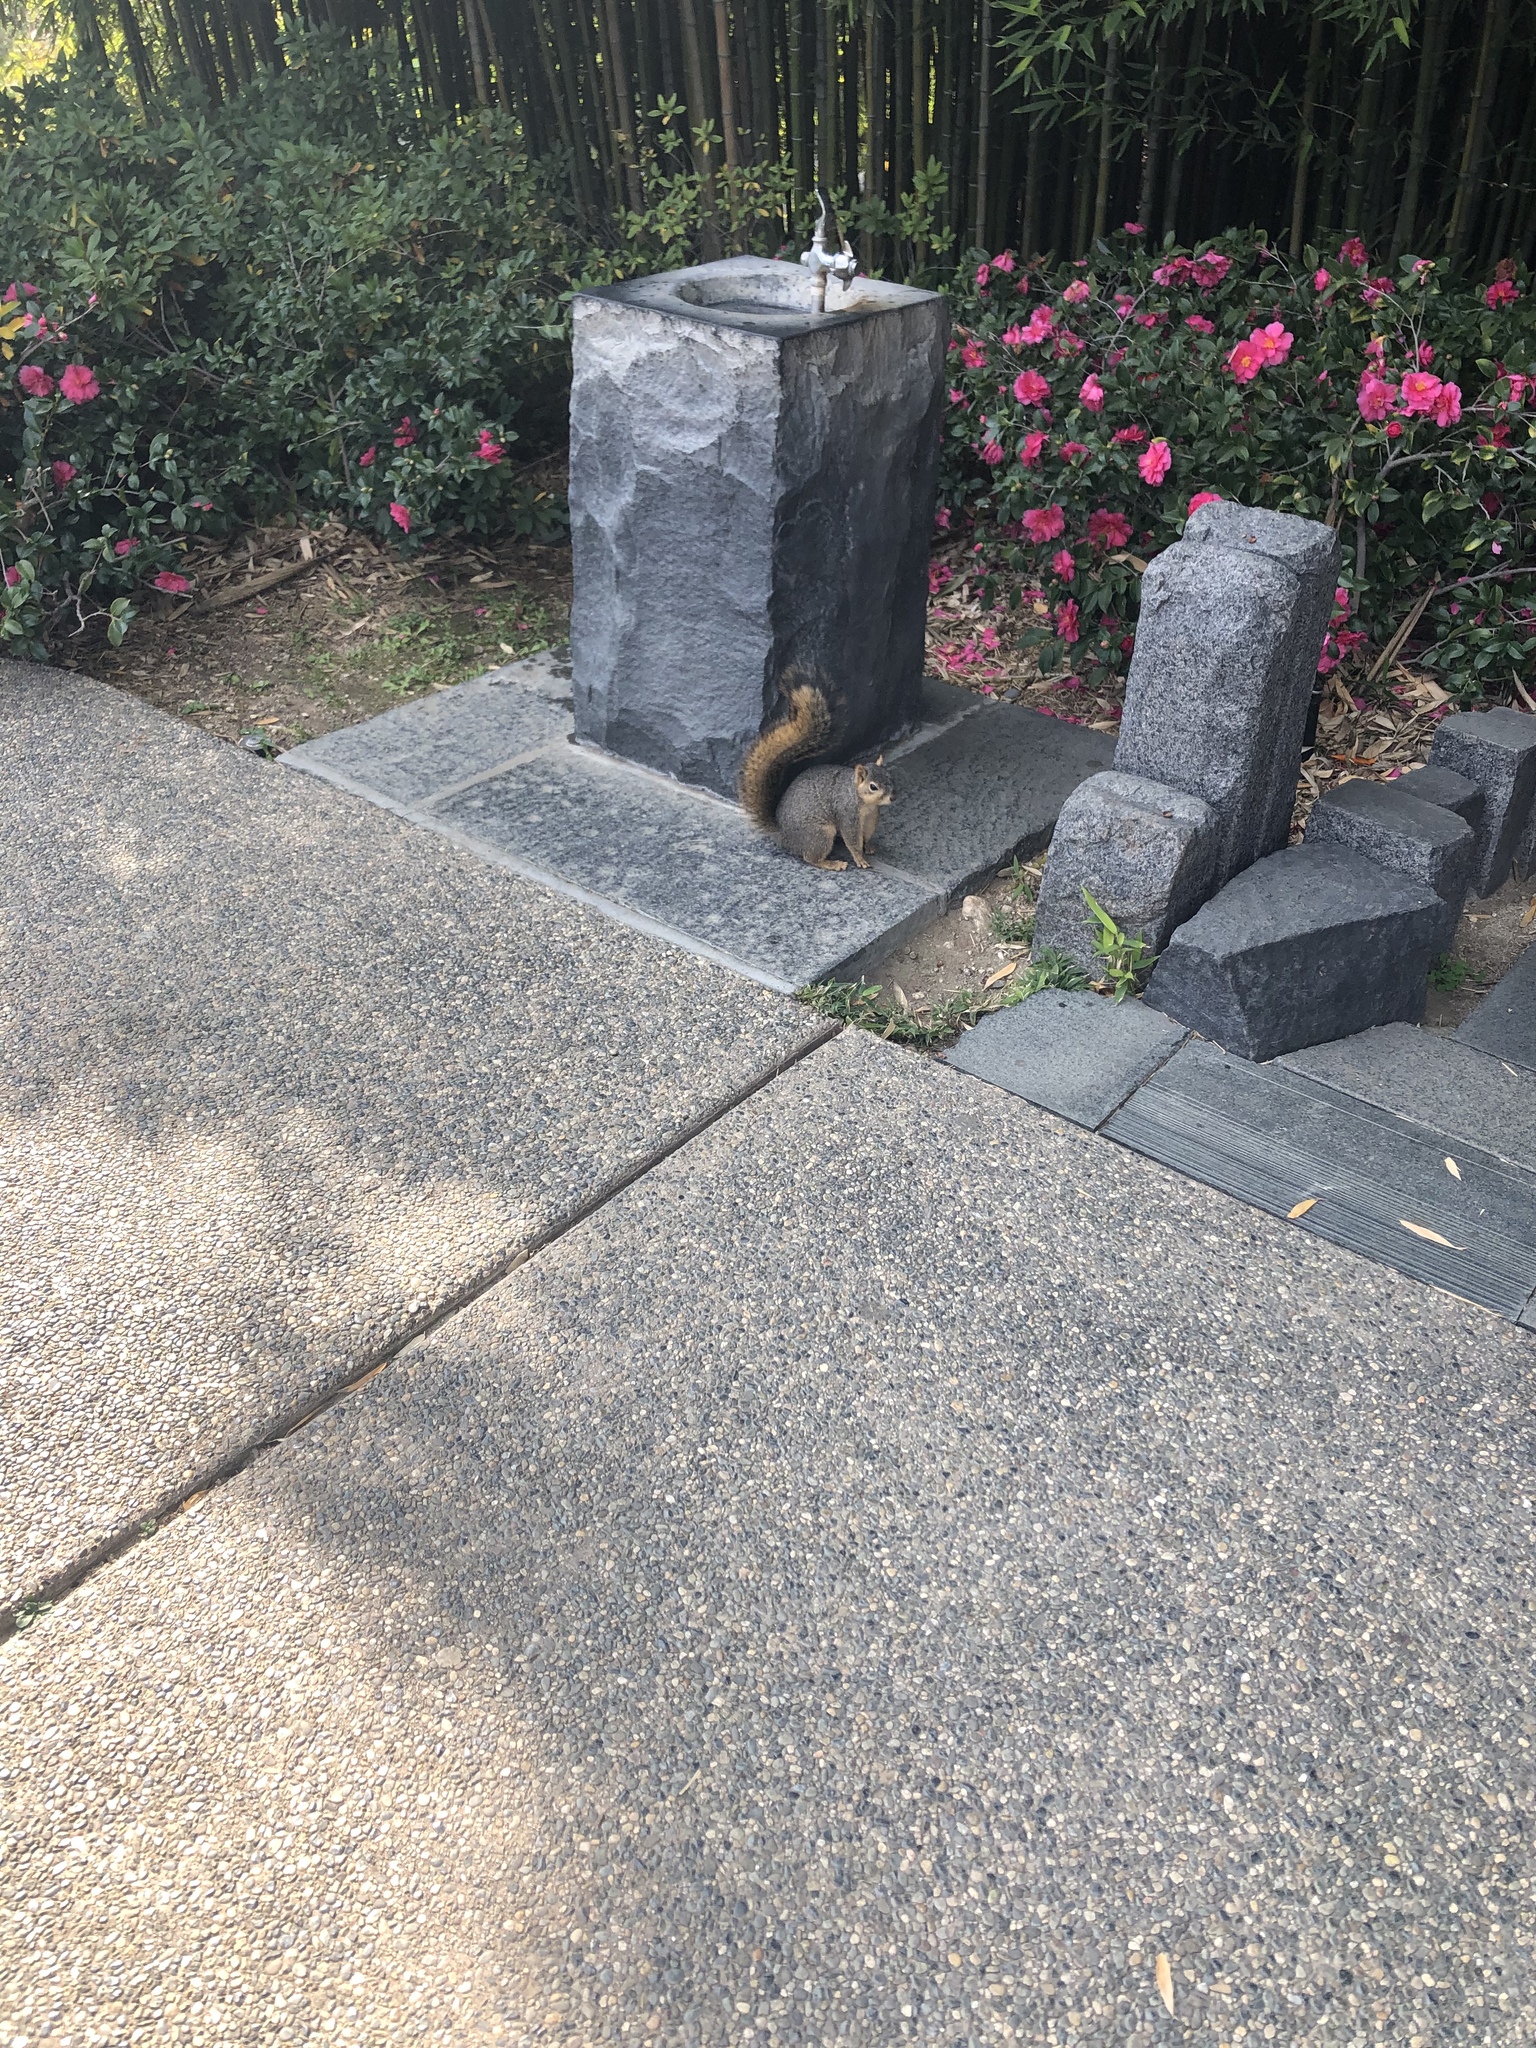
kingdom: Animalia
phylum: Chordata
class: Mammalia
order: Rodentia
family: Sciuridae
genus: Sciurus
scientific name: Sciurus niger
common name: Fox squirrel
